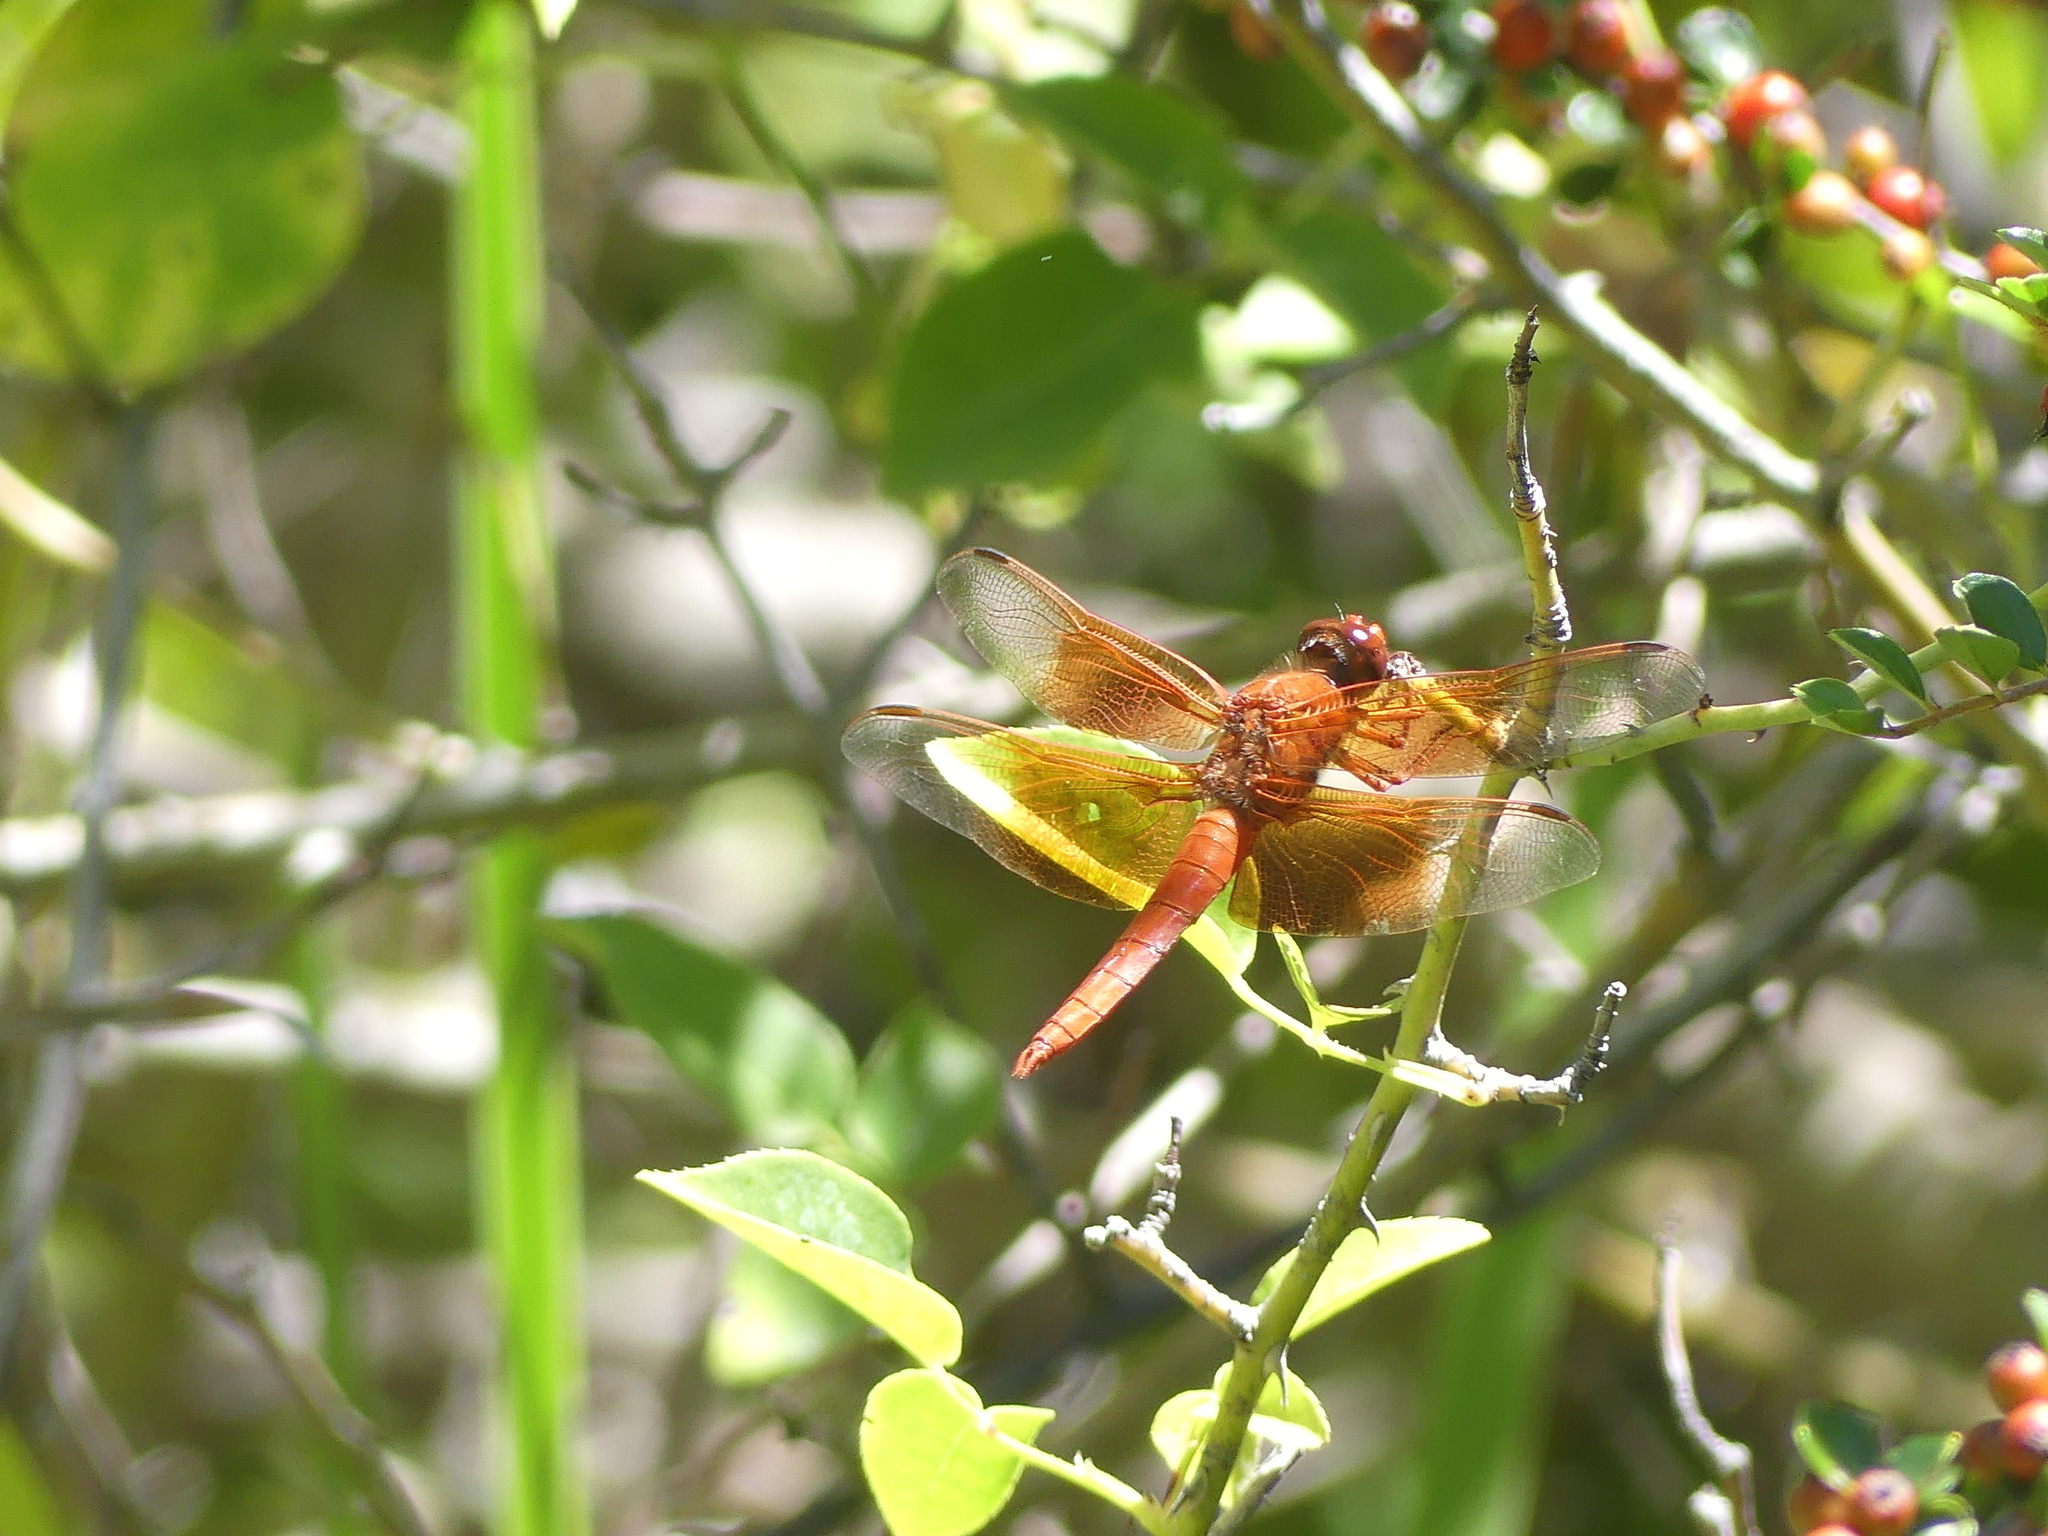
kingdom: Animalia
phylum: Arthropoda
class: Insecta
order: Odonata
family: Libellulidae
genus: Libellula
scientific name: Libellula saturata
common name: Flame skimmer
